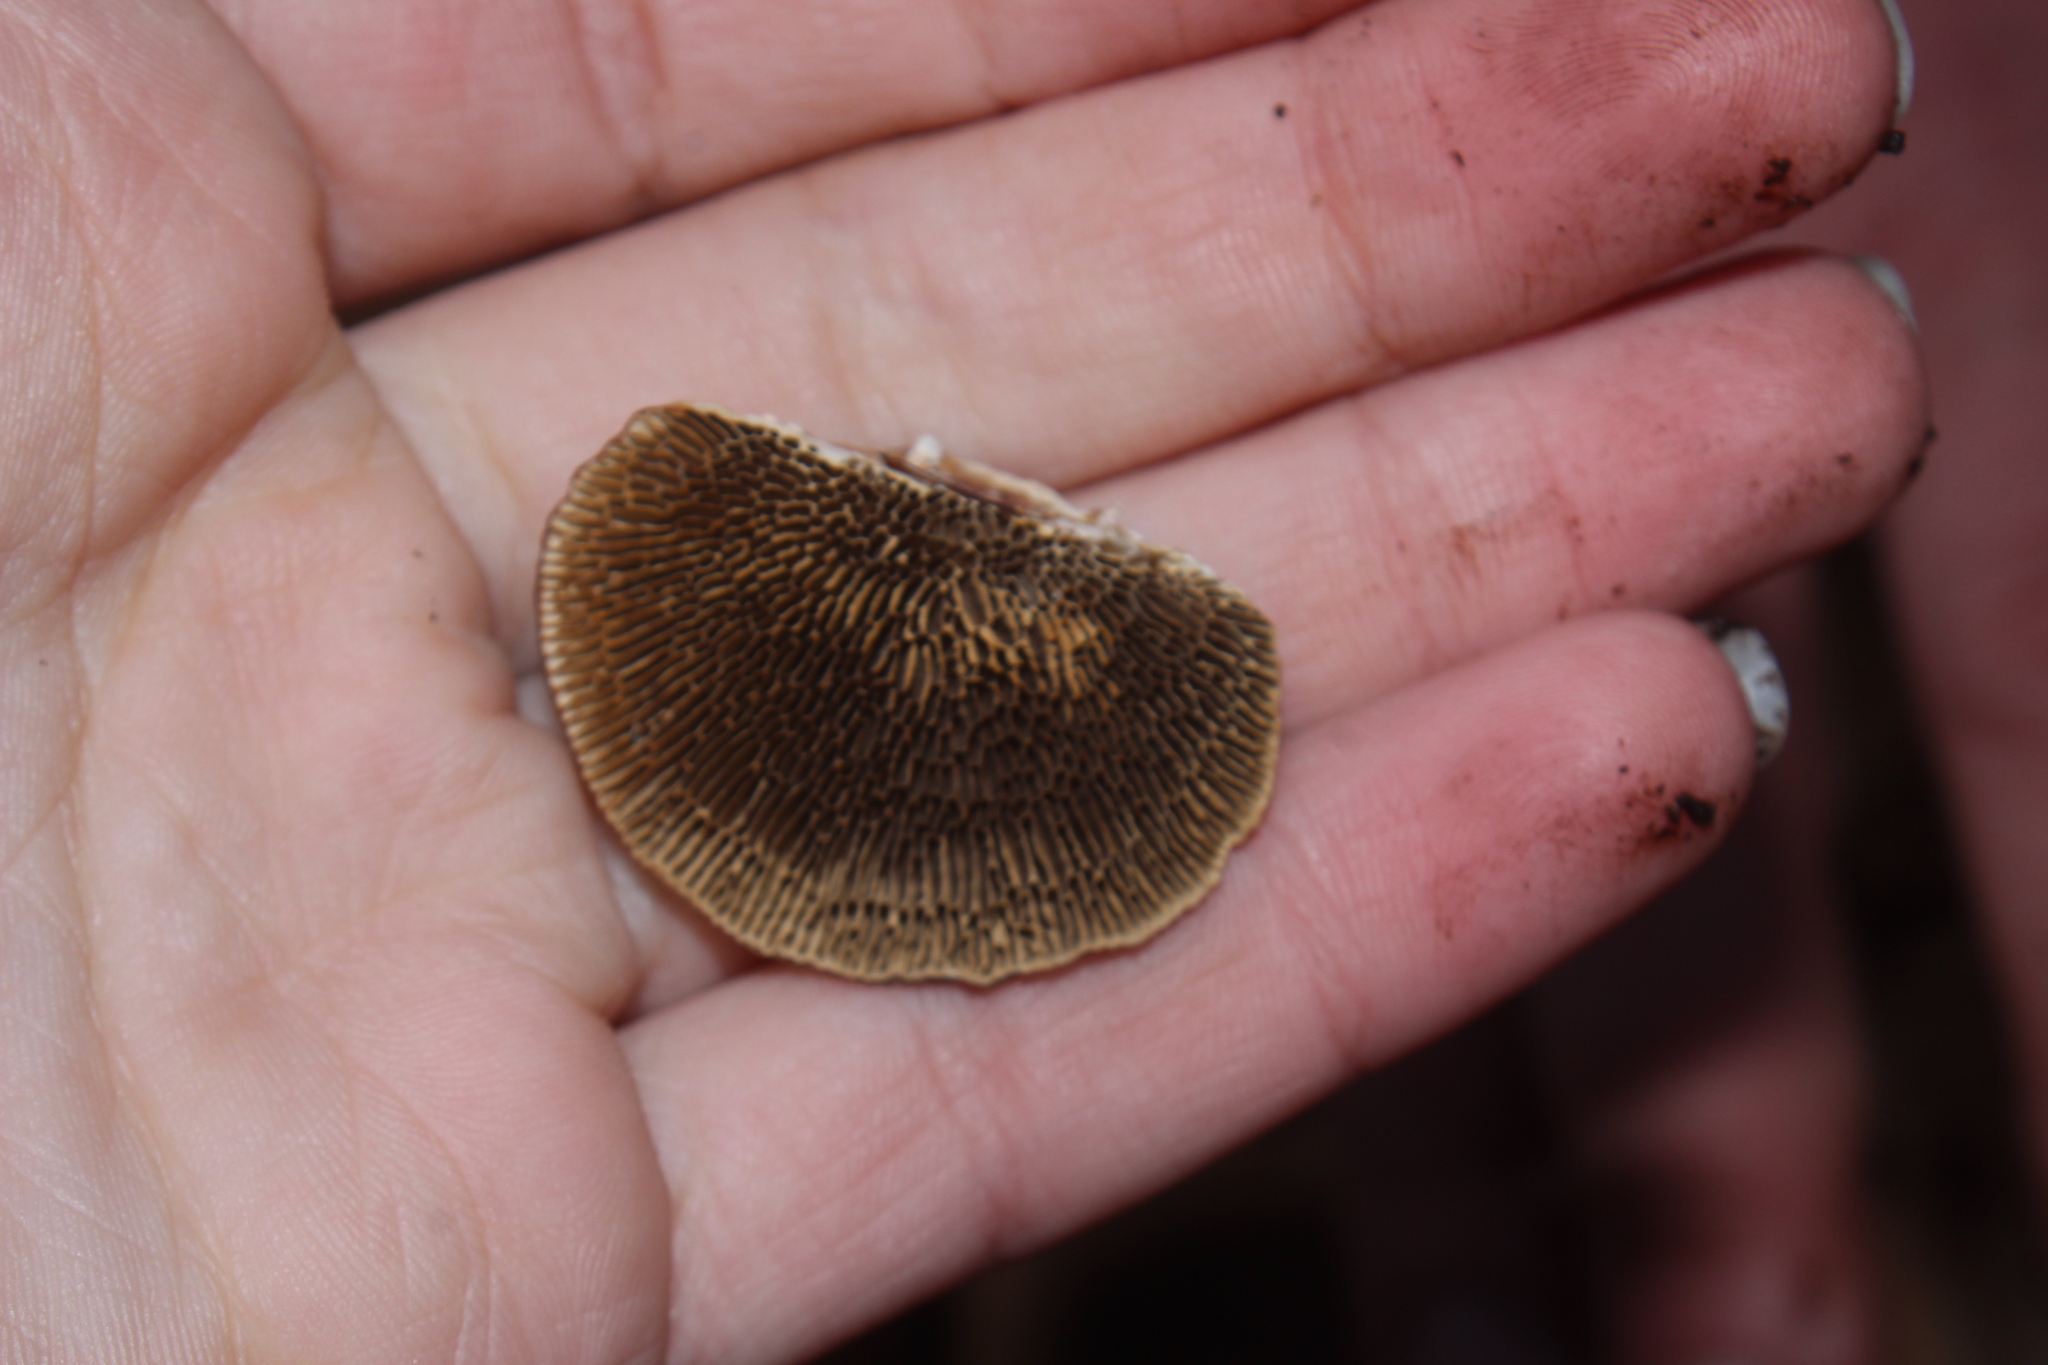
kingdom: Fungi
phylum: Basidiomycota
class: Agaricomycetes
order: Polyporales
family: Polyporaceae
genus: Daedaleopsis
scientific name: Daedaleopsis confragosa
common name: Blushing bracket
